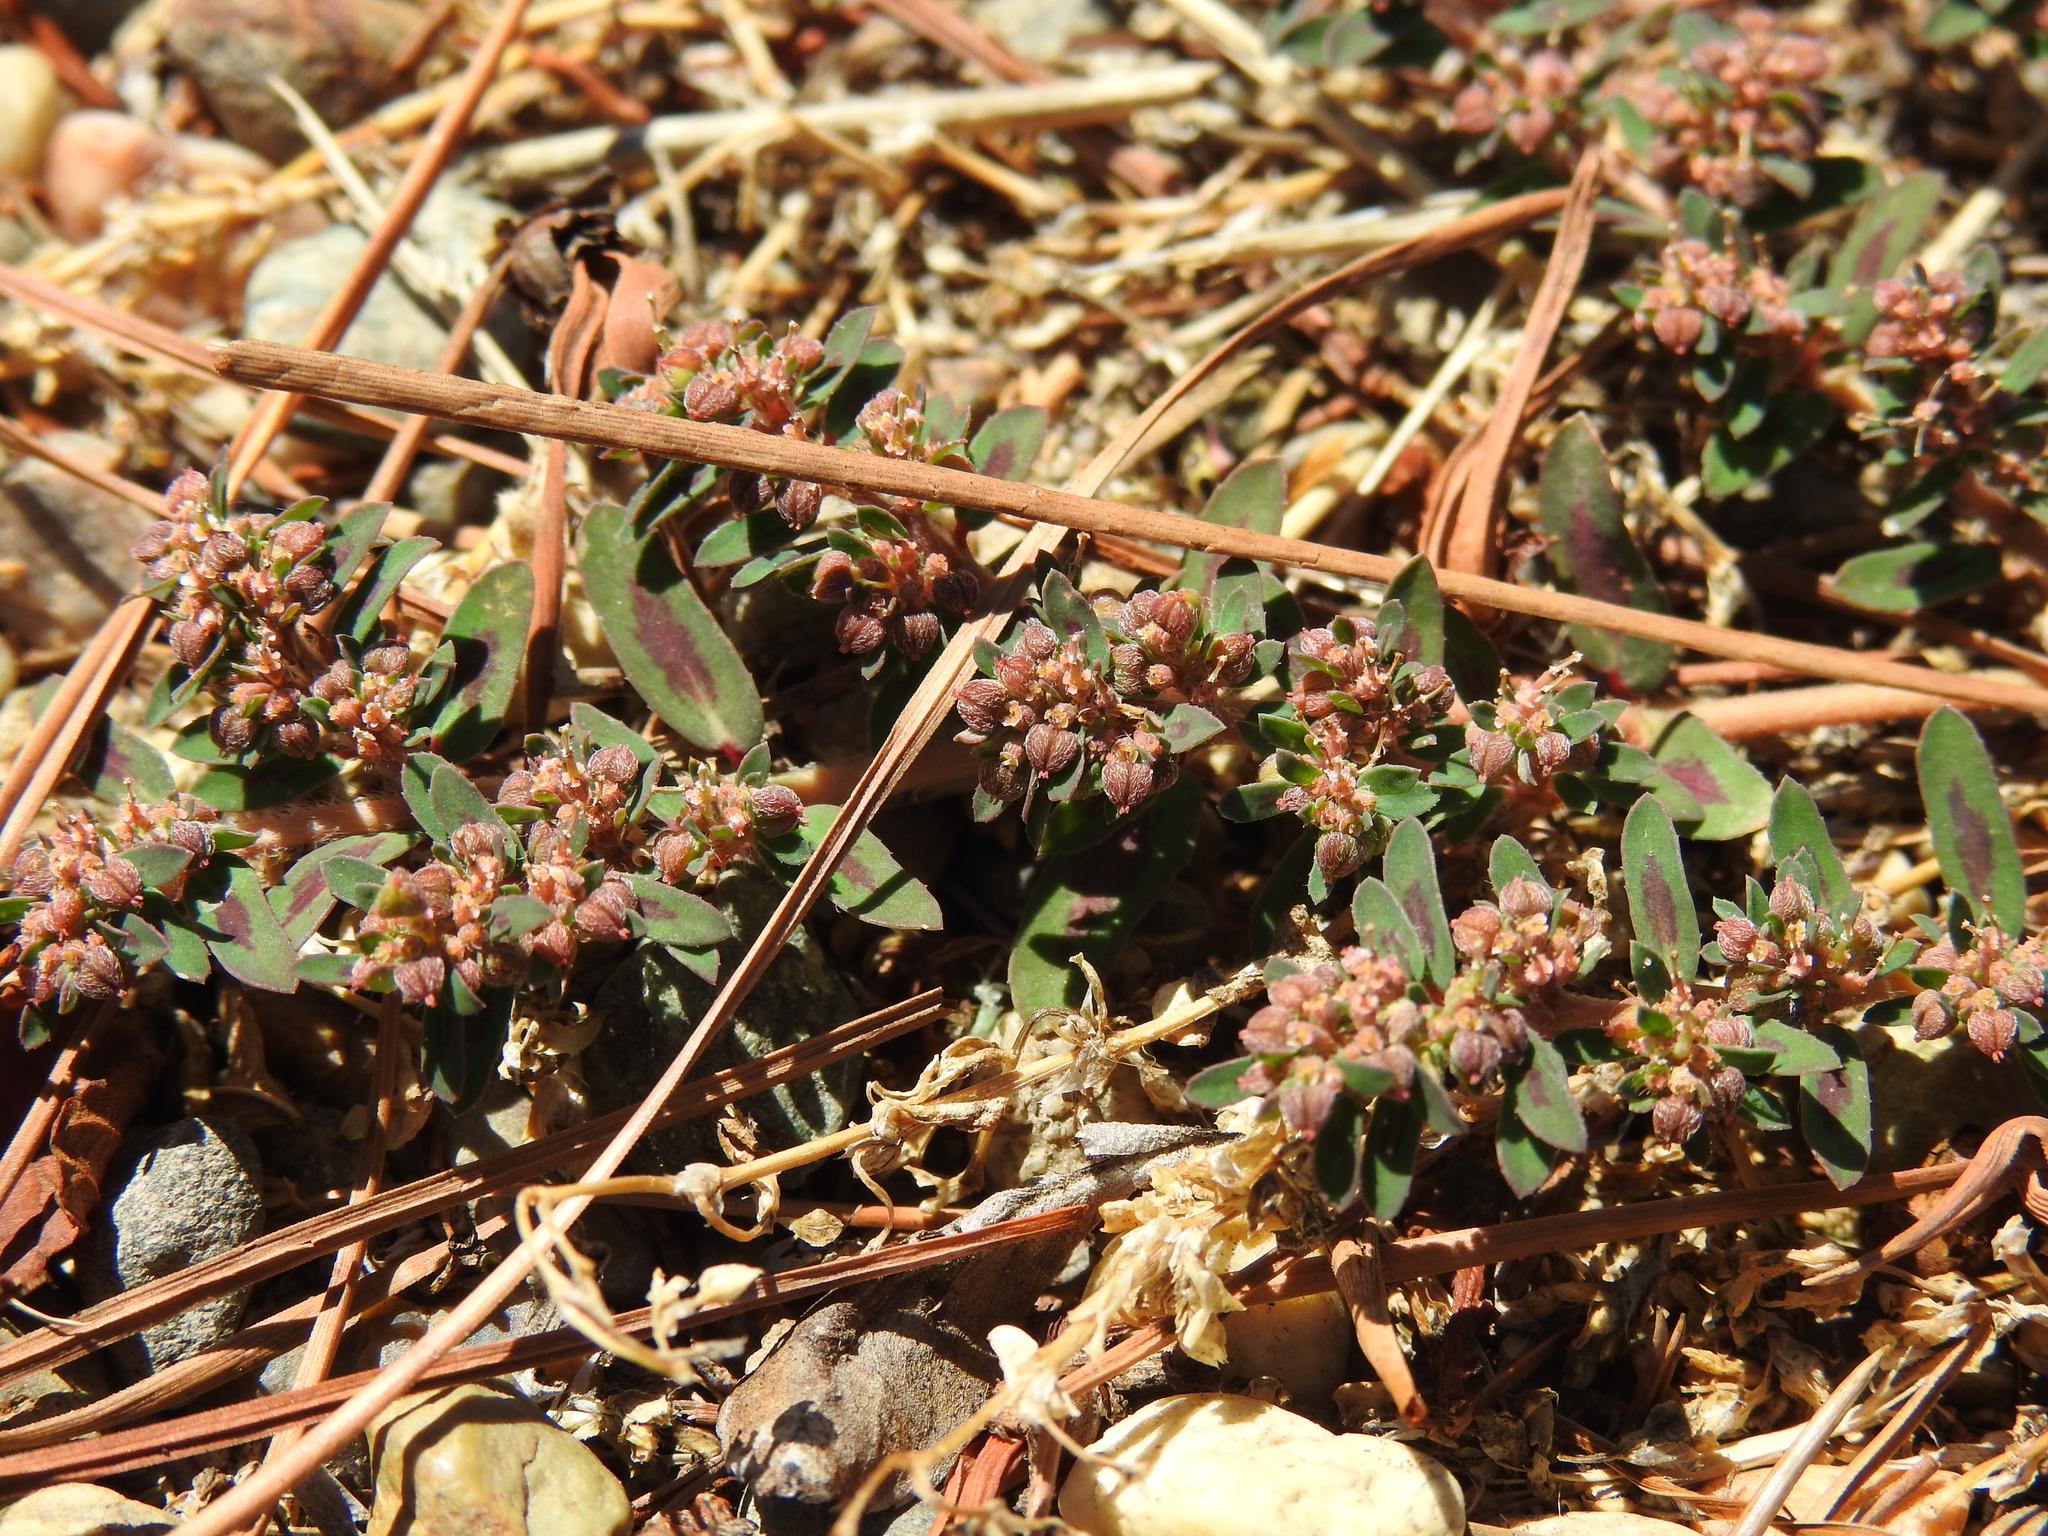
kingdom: Plantae
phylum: Tracheophyta
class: Magnoliopsida
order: Malpighiales
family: Euphorbiaceae
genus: Euphorbia
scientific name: Euphorbia maculata
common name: Spotted spurge
